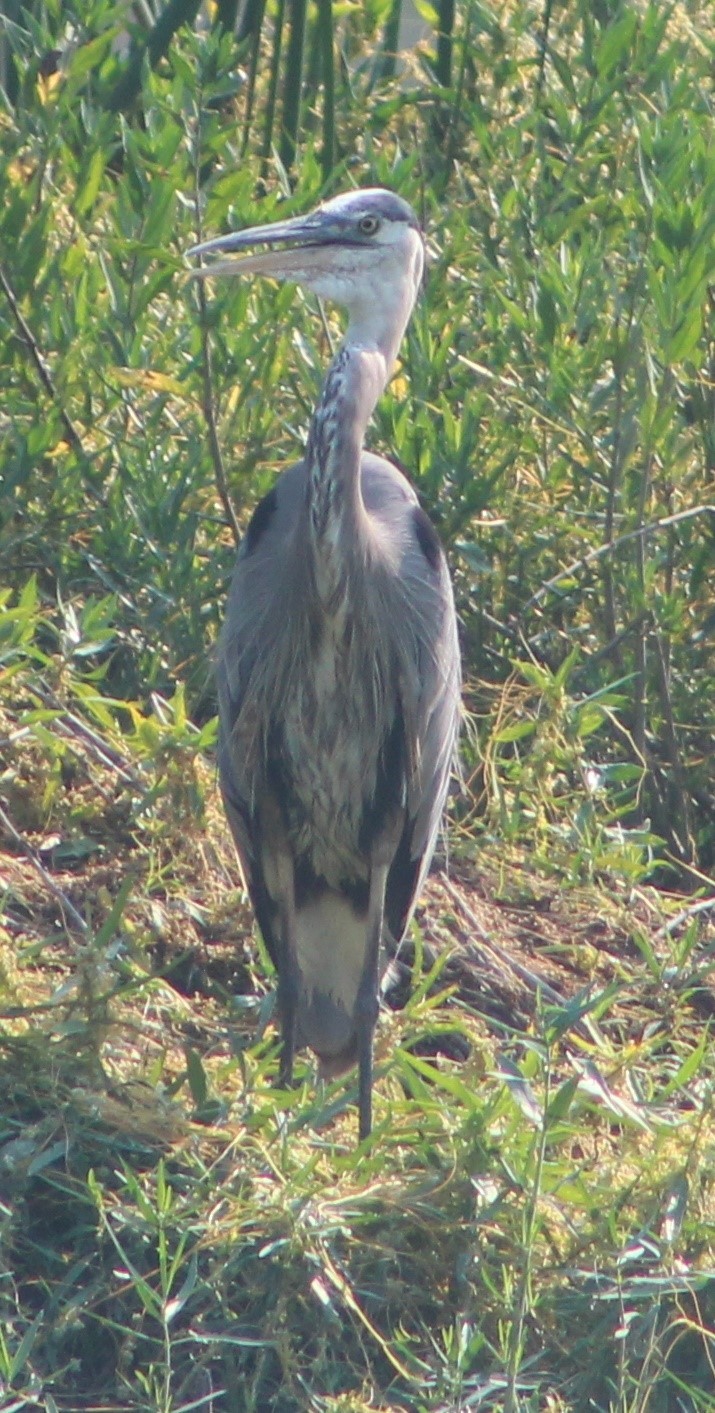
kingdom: Animalia
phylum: Chordata
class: Aves
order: Pelecaniformes
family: Ardeidae
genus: Ardea
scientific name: Ardea herodias
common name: Great blue heron
